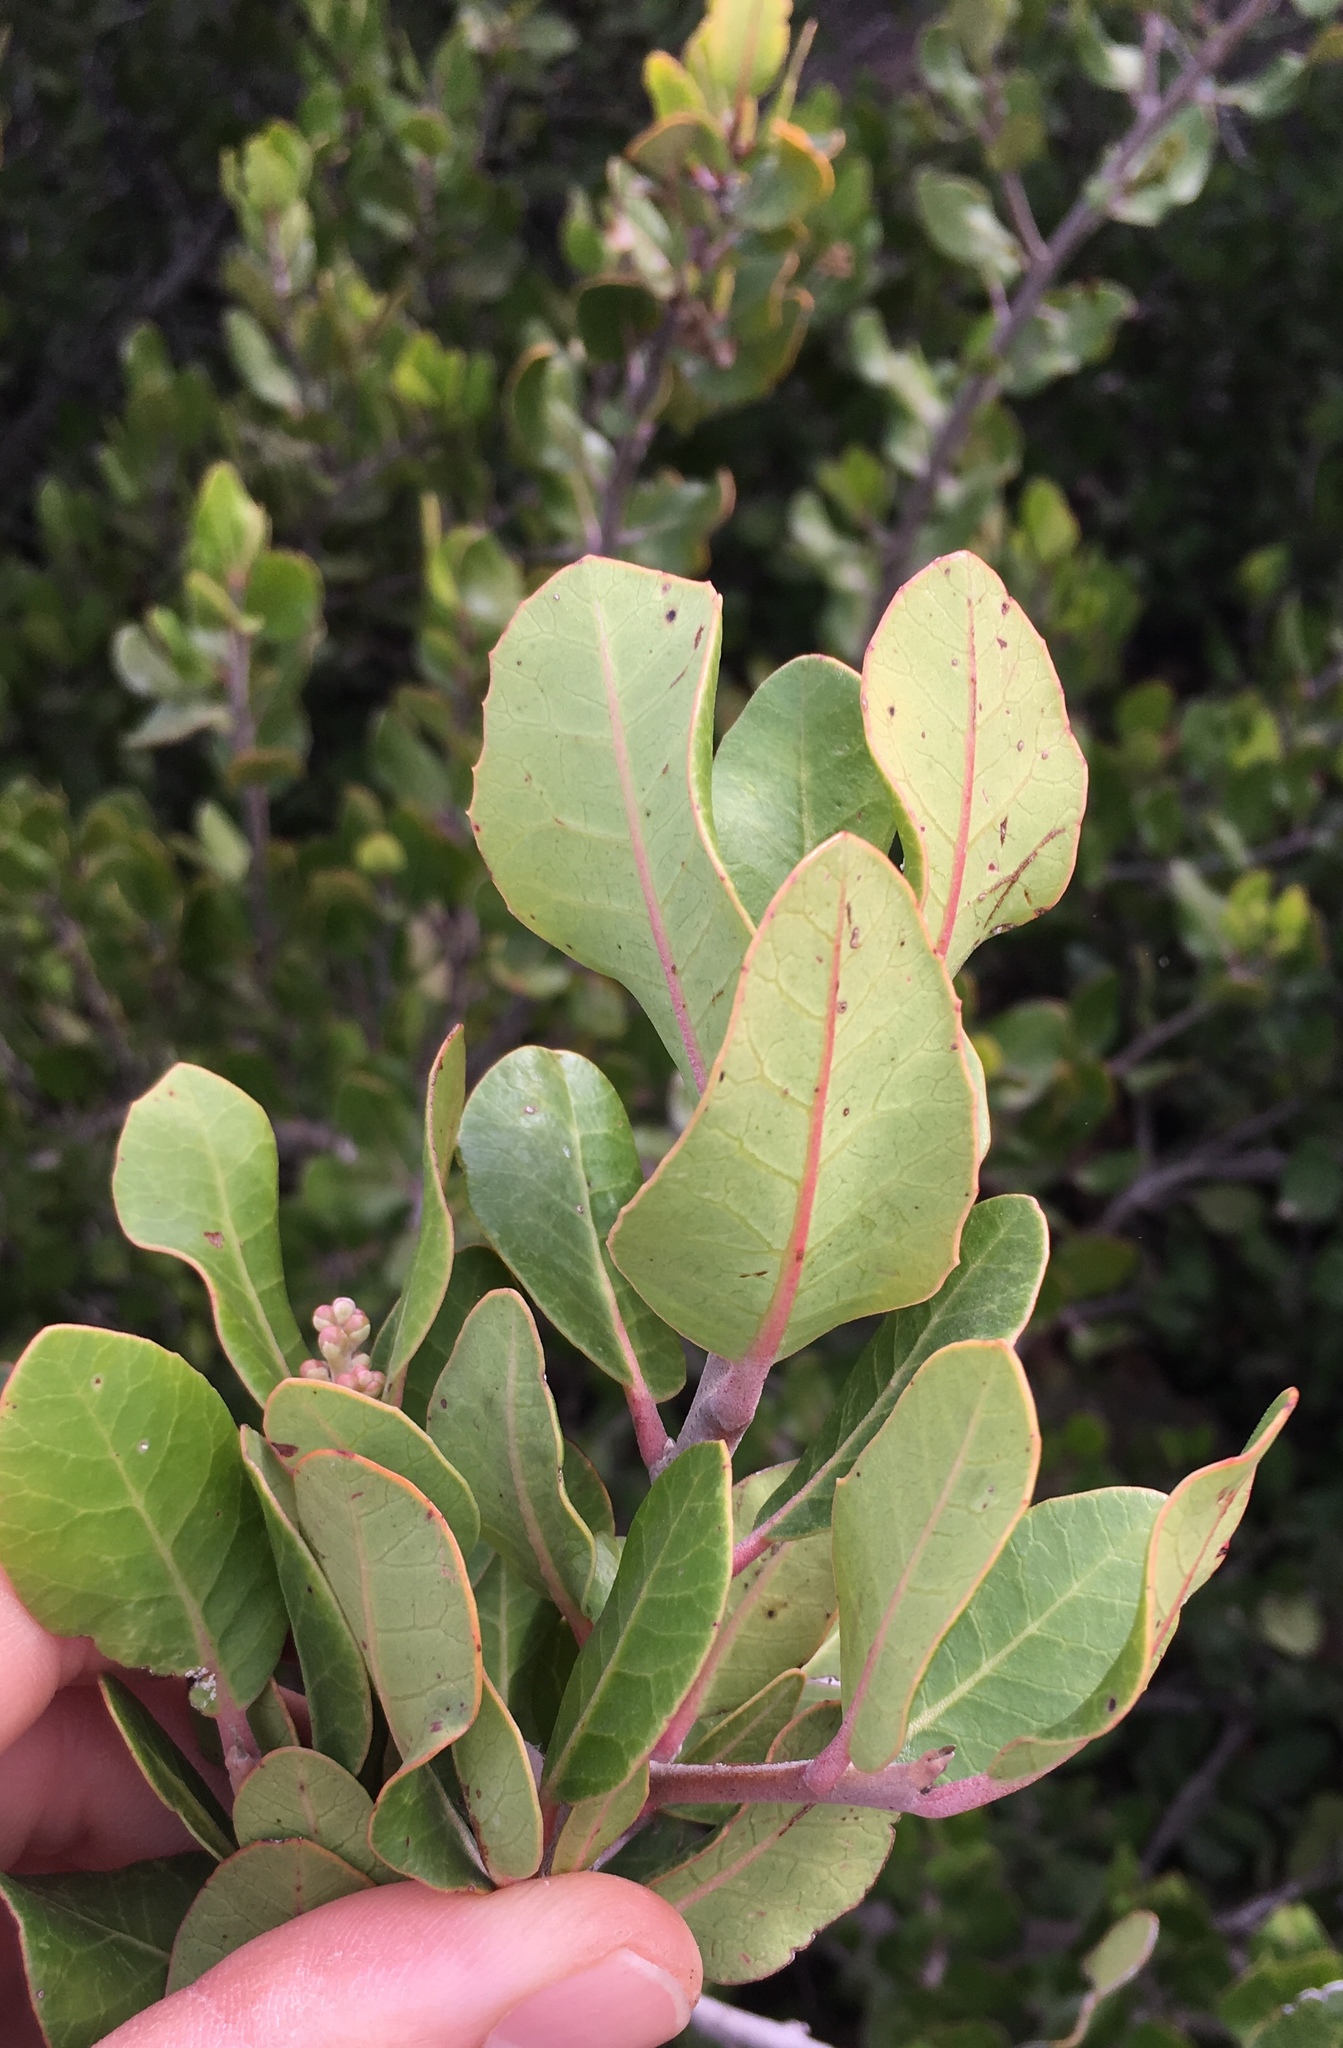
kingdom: Plantae
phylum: Tracheophyta
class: Magnoliopsida
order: Sapindales
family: Anacardiaceae
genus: Rhus
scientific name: Rhus integrifolia
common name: Lemonade sumac
